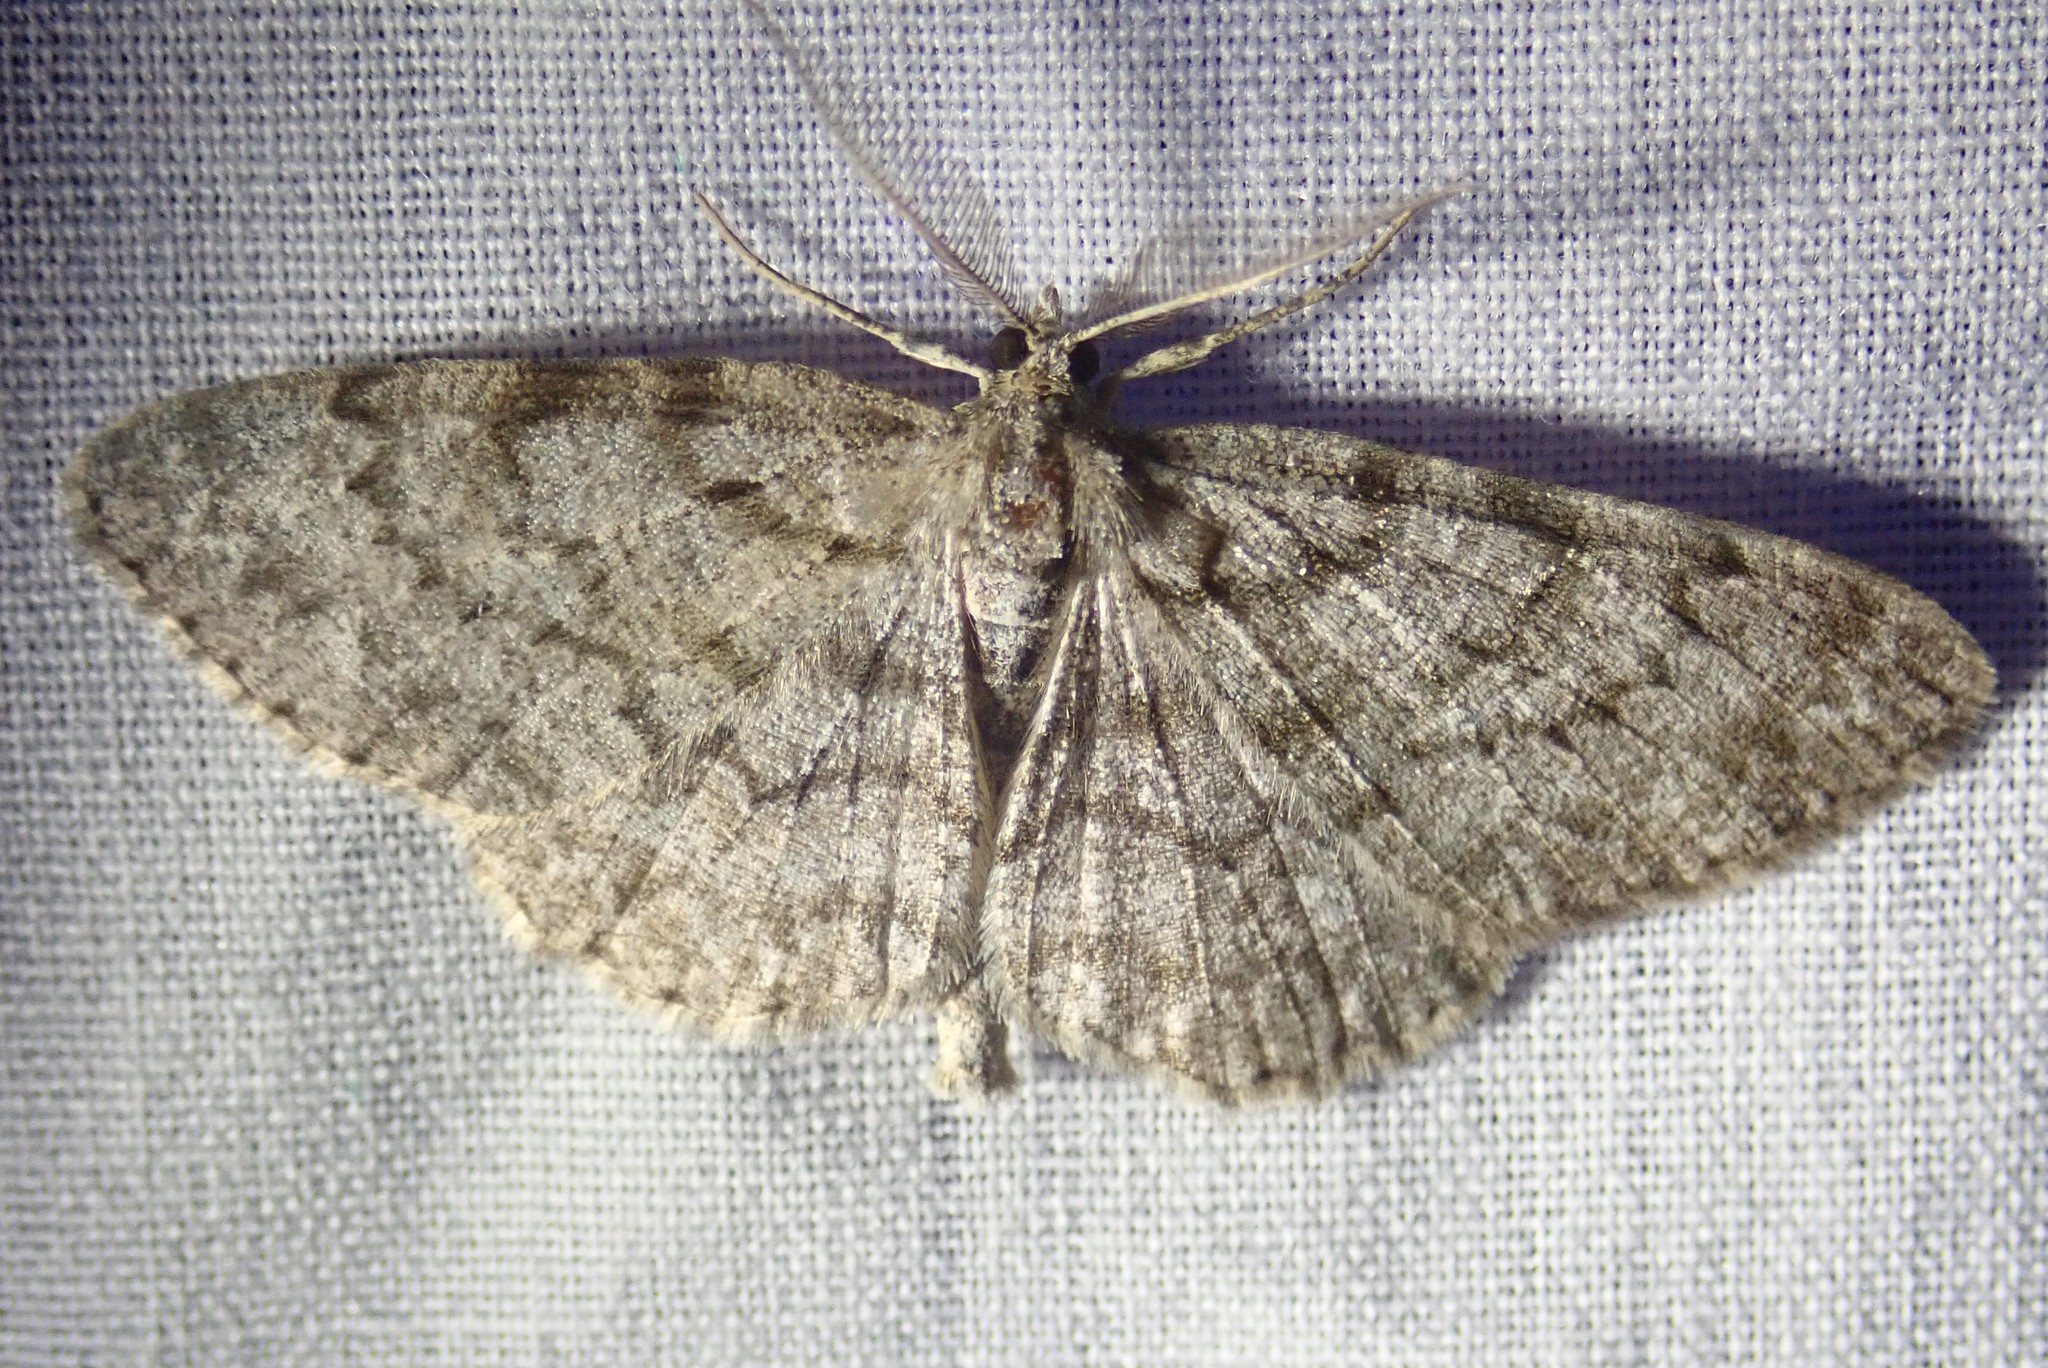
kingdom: Animalia
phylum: Arthropoda
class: Insecta
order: Lepidoptera
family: Geometridae
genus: Protoboarmia
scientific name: Protoboarmia porcelaria
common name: Porcelain gray
